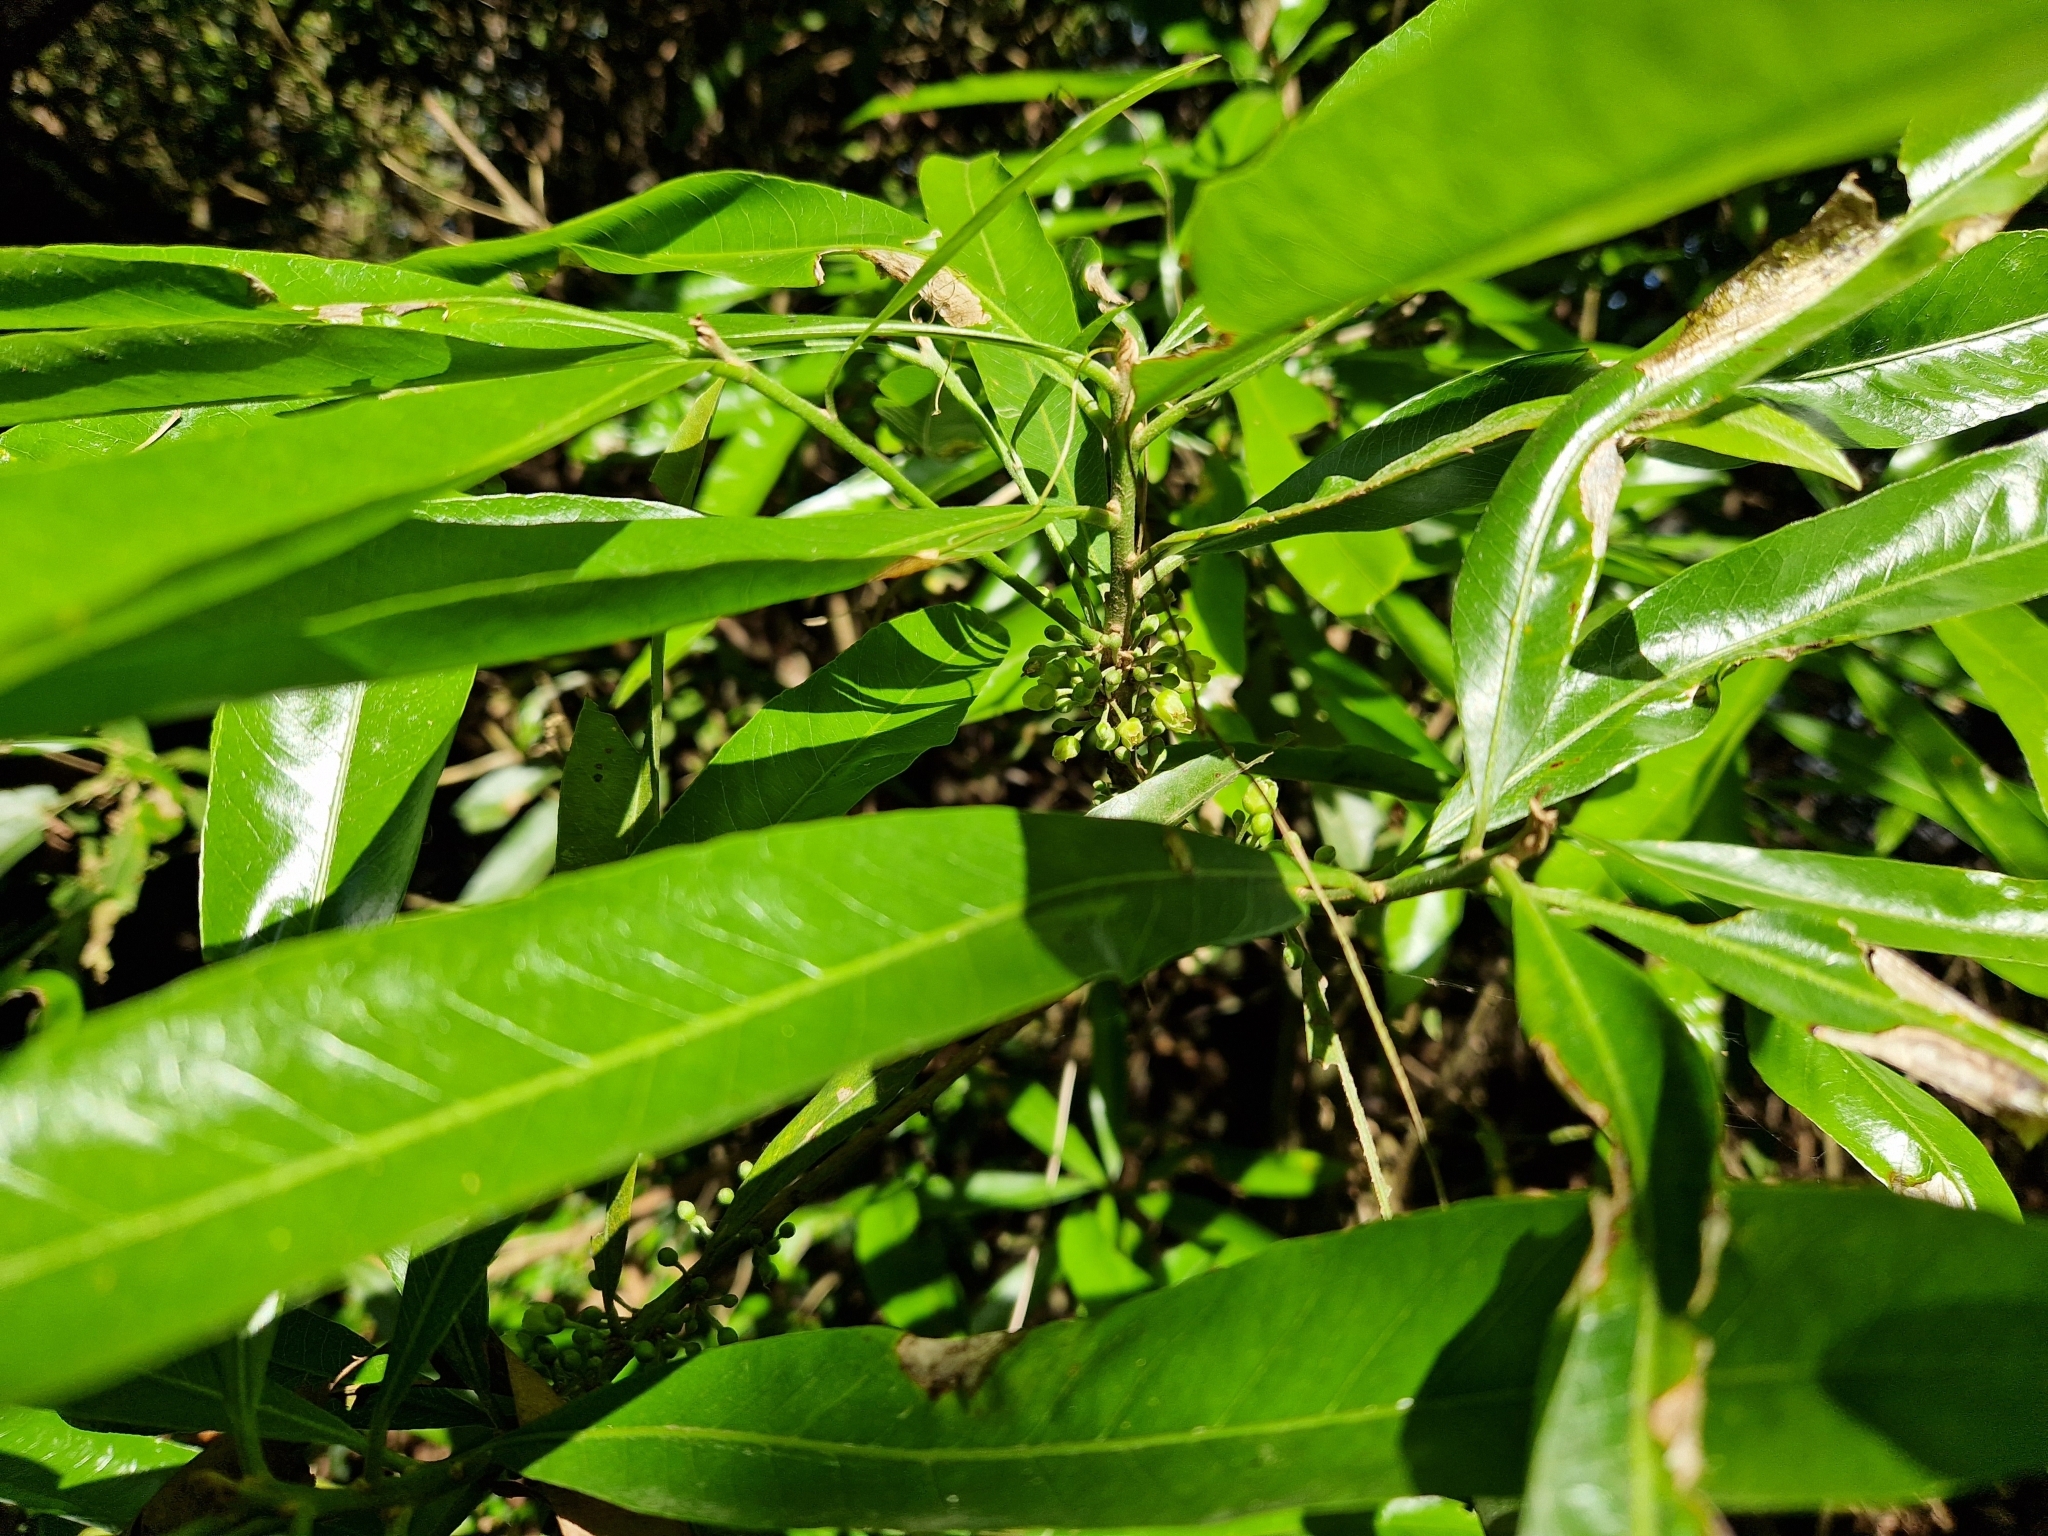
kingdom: Plantae
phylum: Tracheophyta
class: Magnoliopsida
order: Ericales
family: Sapotaceae
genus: Pouteria
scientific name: Pouteria gardneriana
